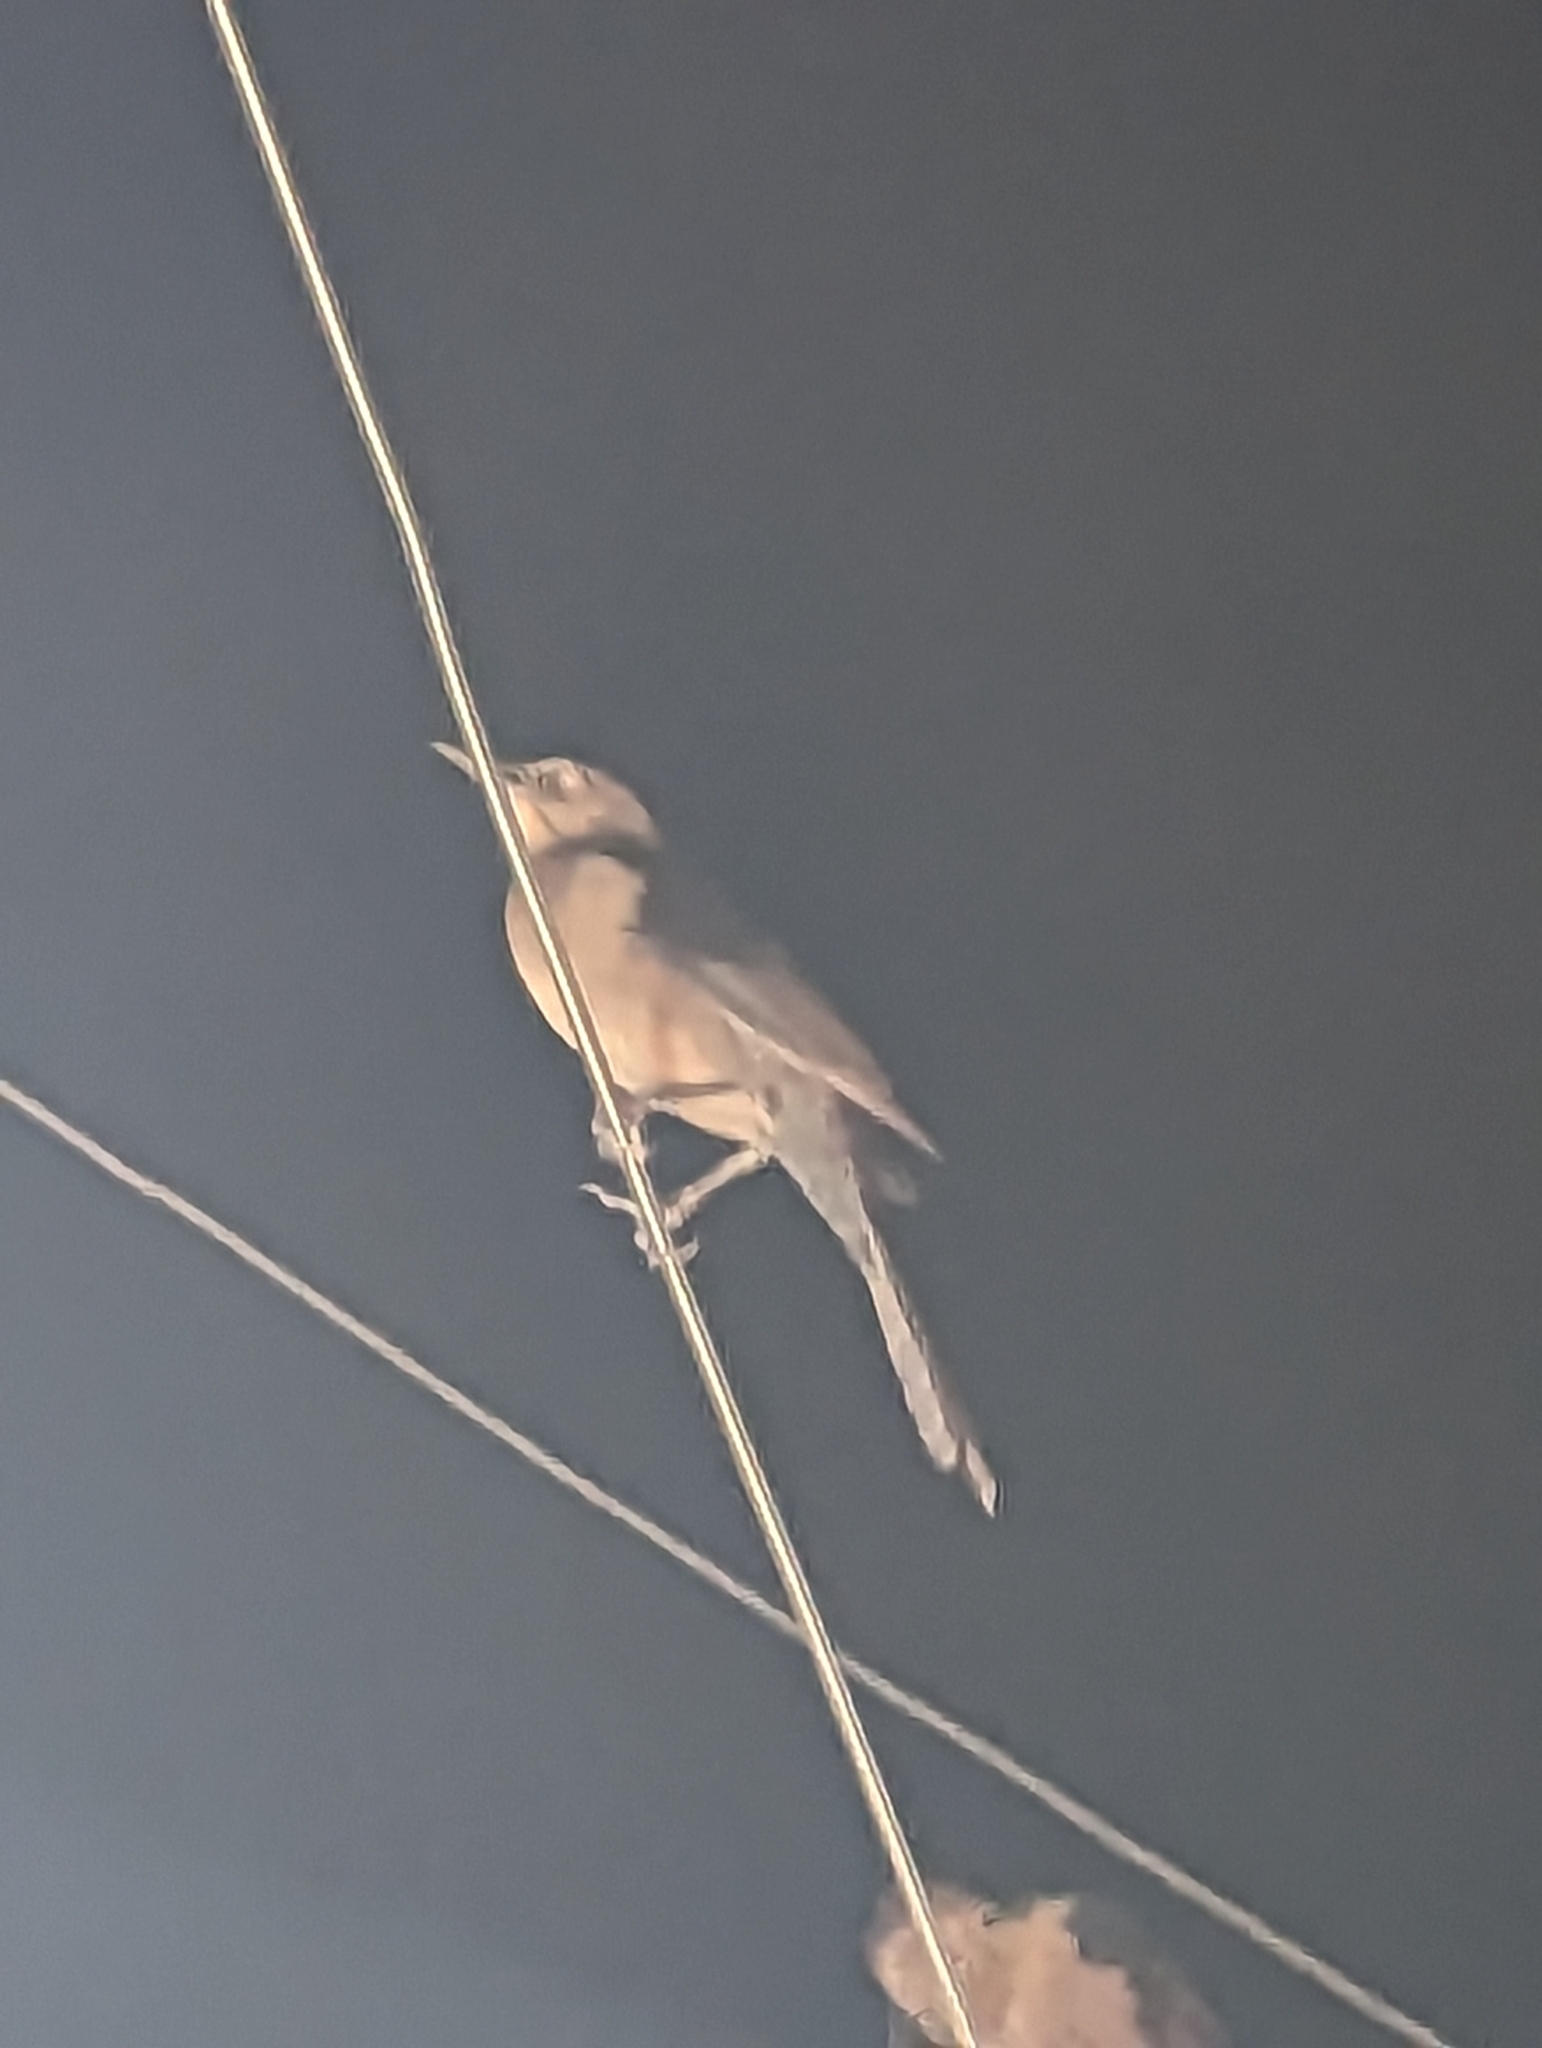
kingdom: Animalia
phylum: Chordata
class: Aves
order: Passeriformes
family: Icteridae
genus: Quiscalus
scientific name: Quiscalus mexicanus
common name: Great-tailed grackle
